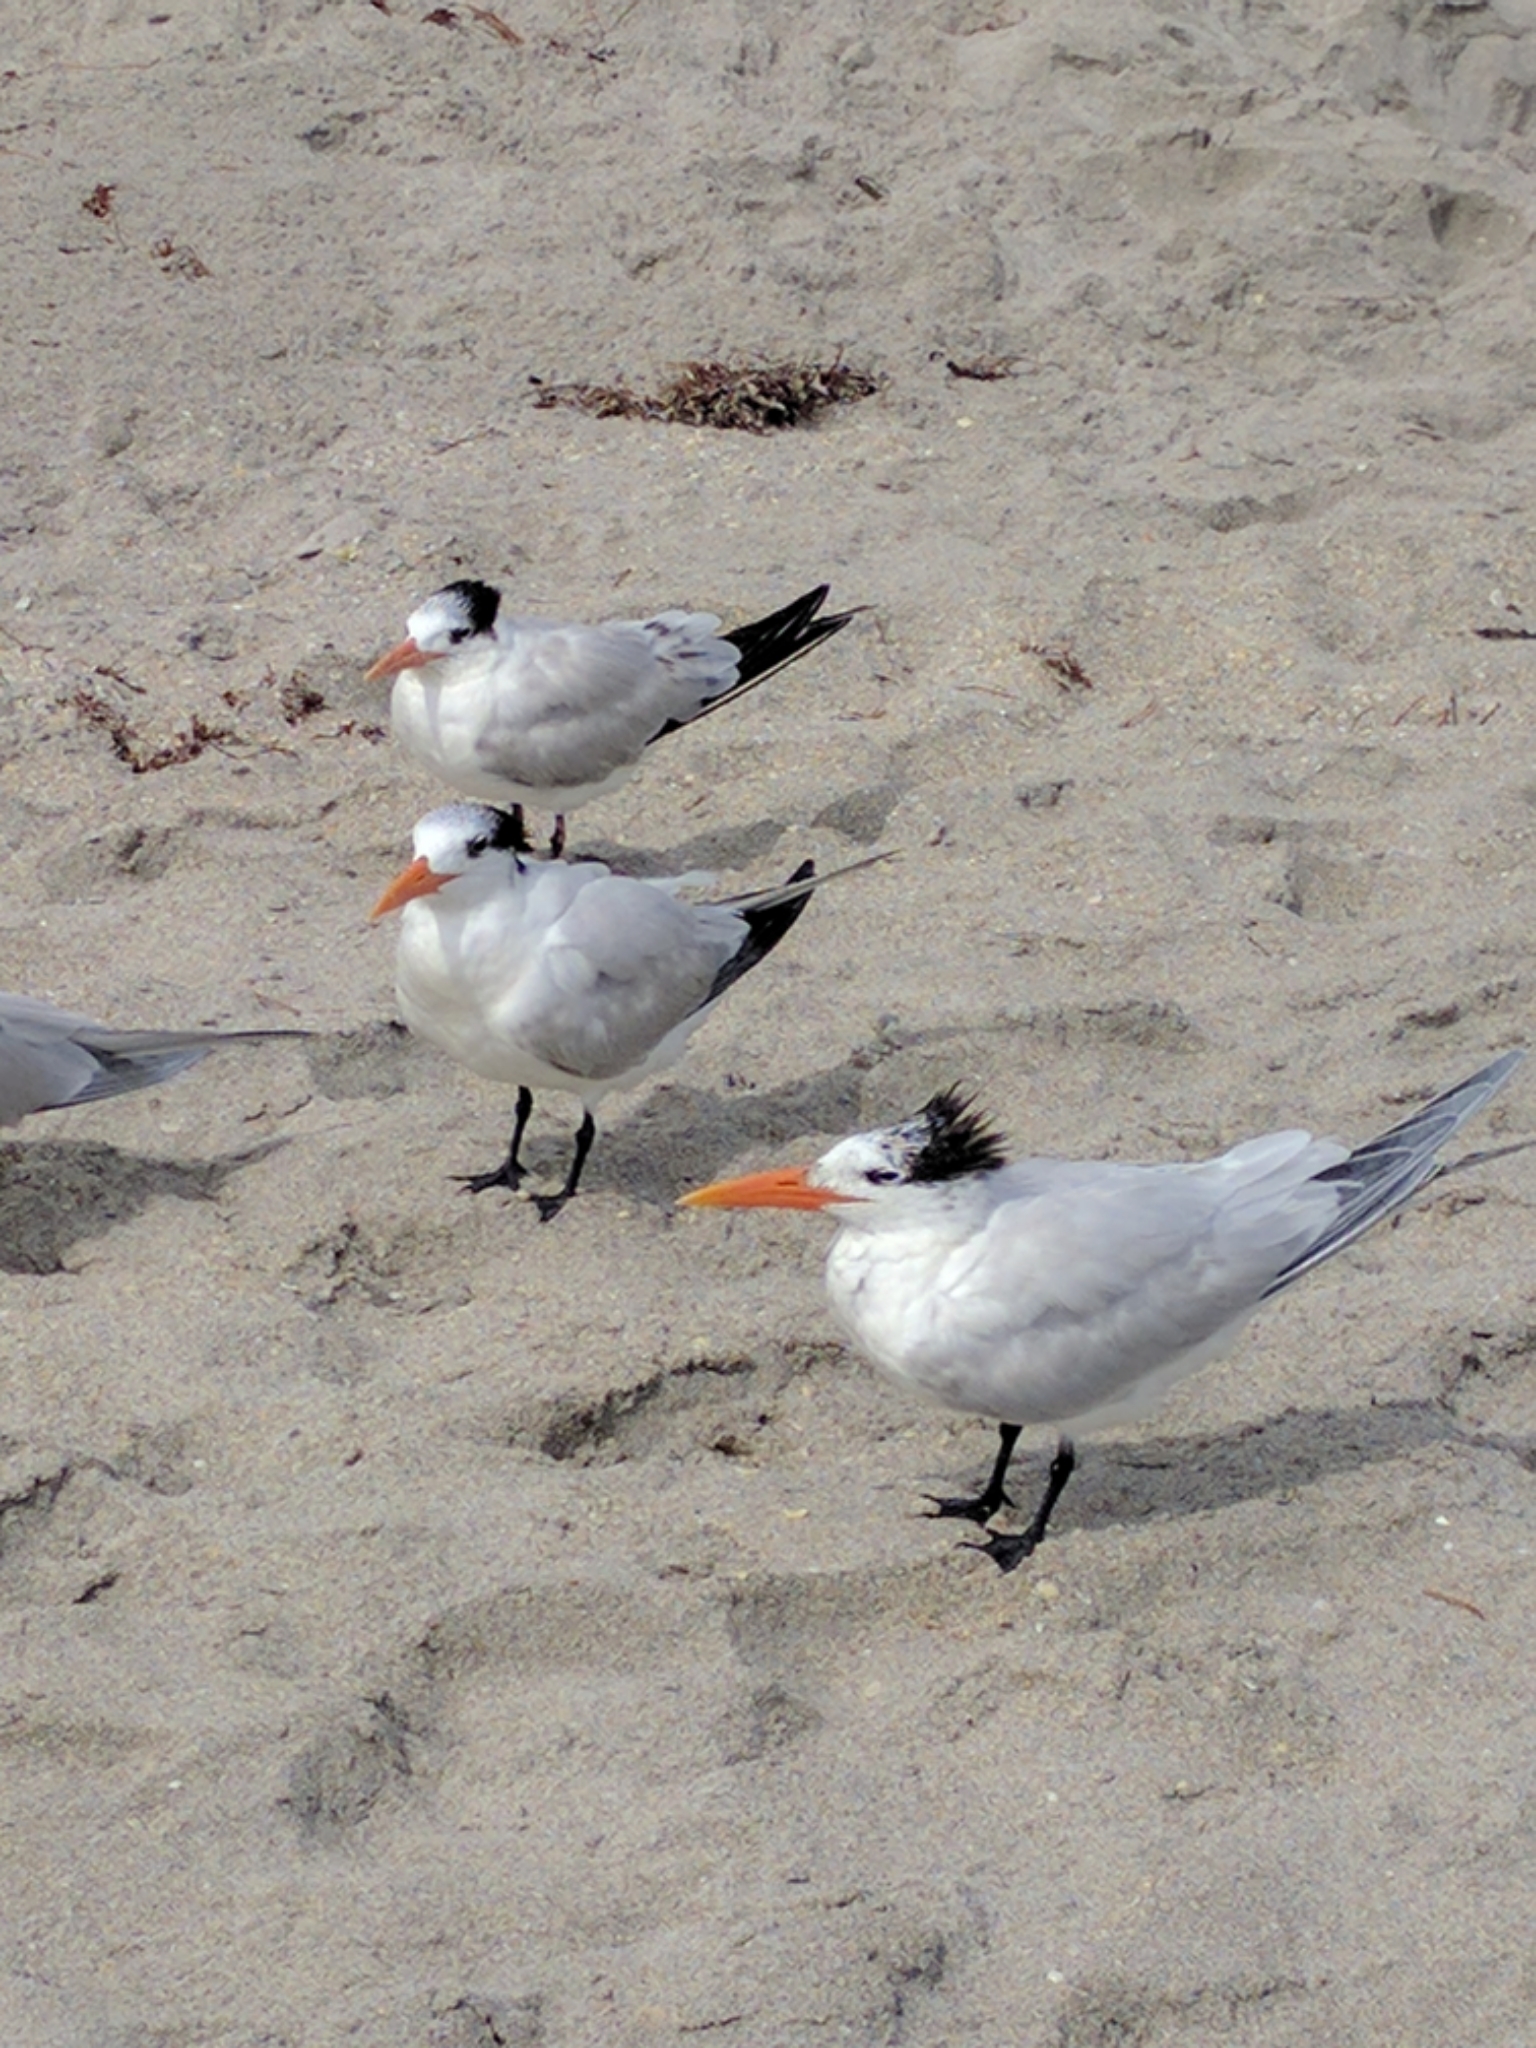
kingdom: Animalia
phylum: Chordata
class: Aves
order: Charadriiformes
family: Laridae
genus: Thalasseus
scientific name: Thalasseus maximus
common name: Royal tern
